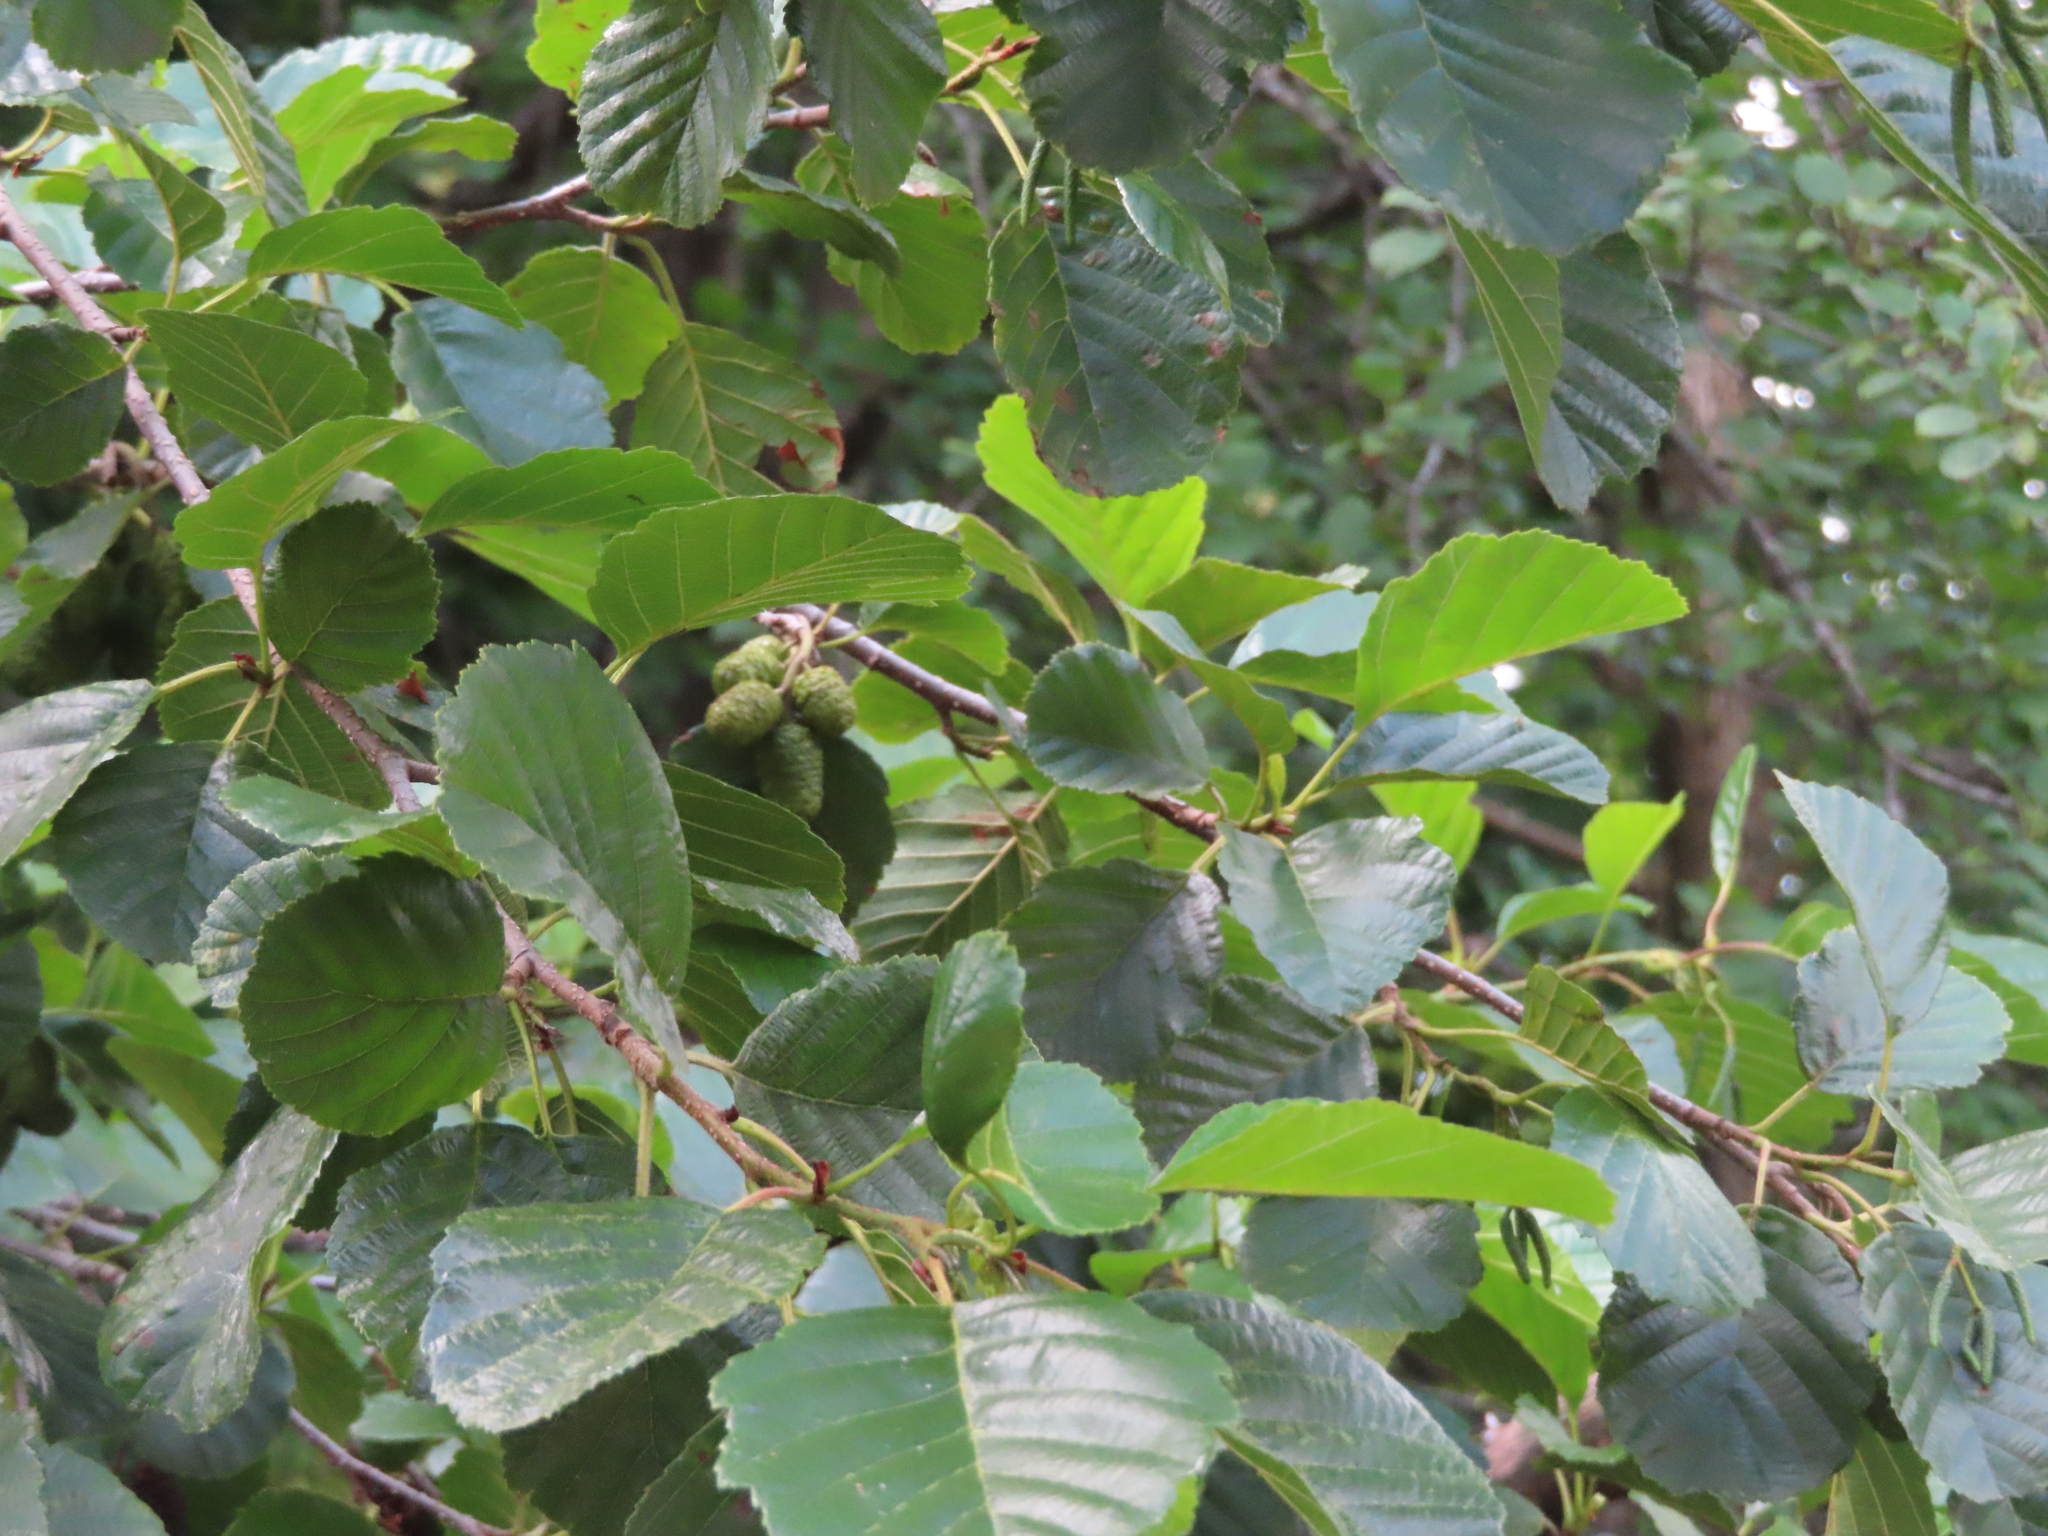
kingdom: Plantae
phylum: Tracheophyta
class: Magnoliopsida
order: Fagales
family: Betulaceae
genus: Alnus
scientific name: Alnus glutinosa
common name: Black alder
